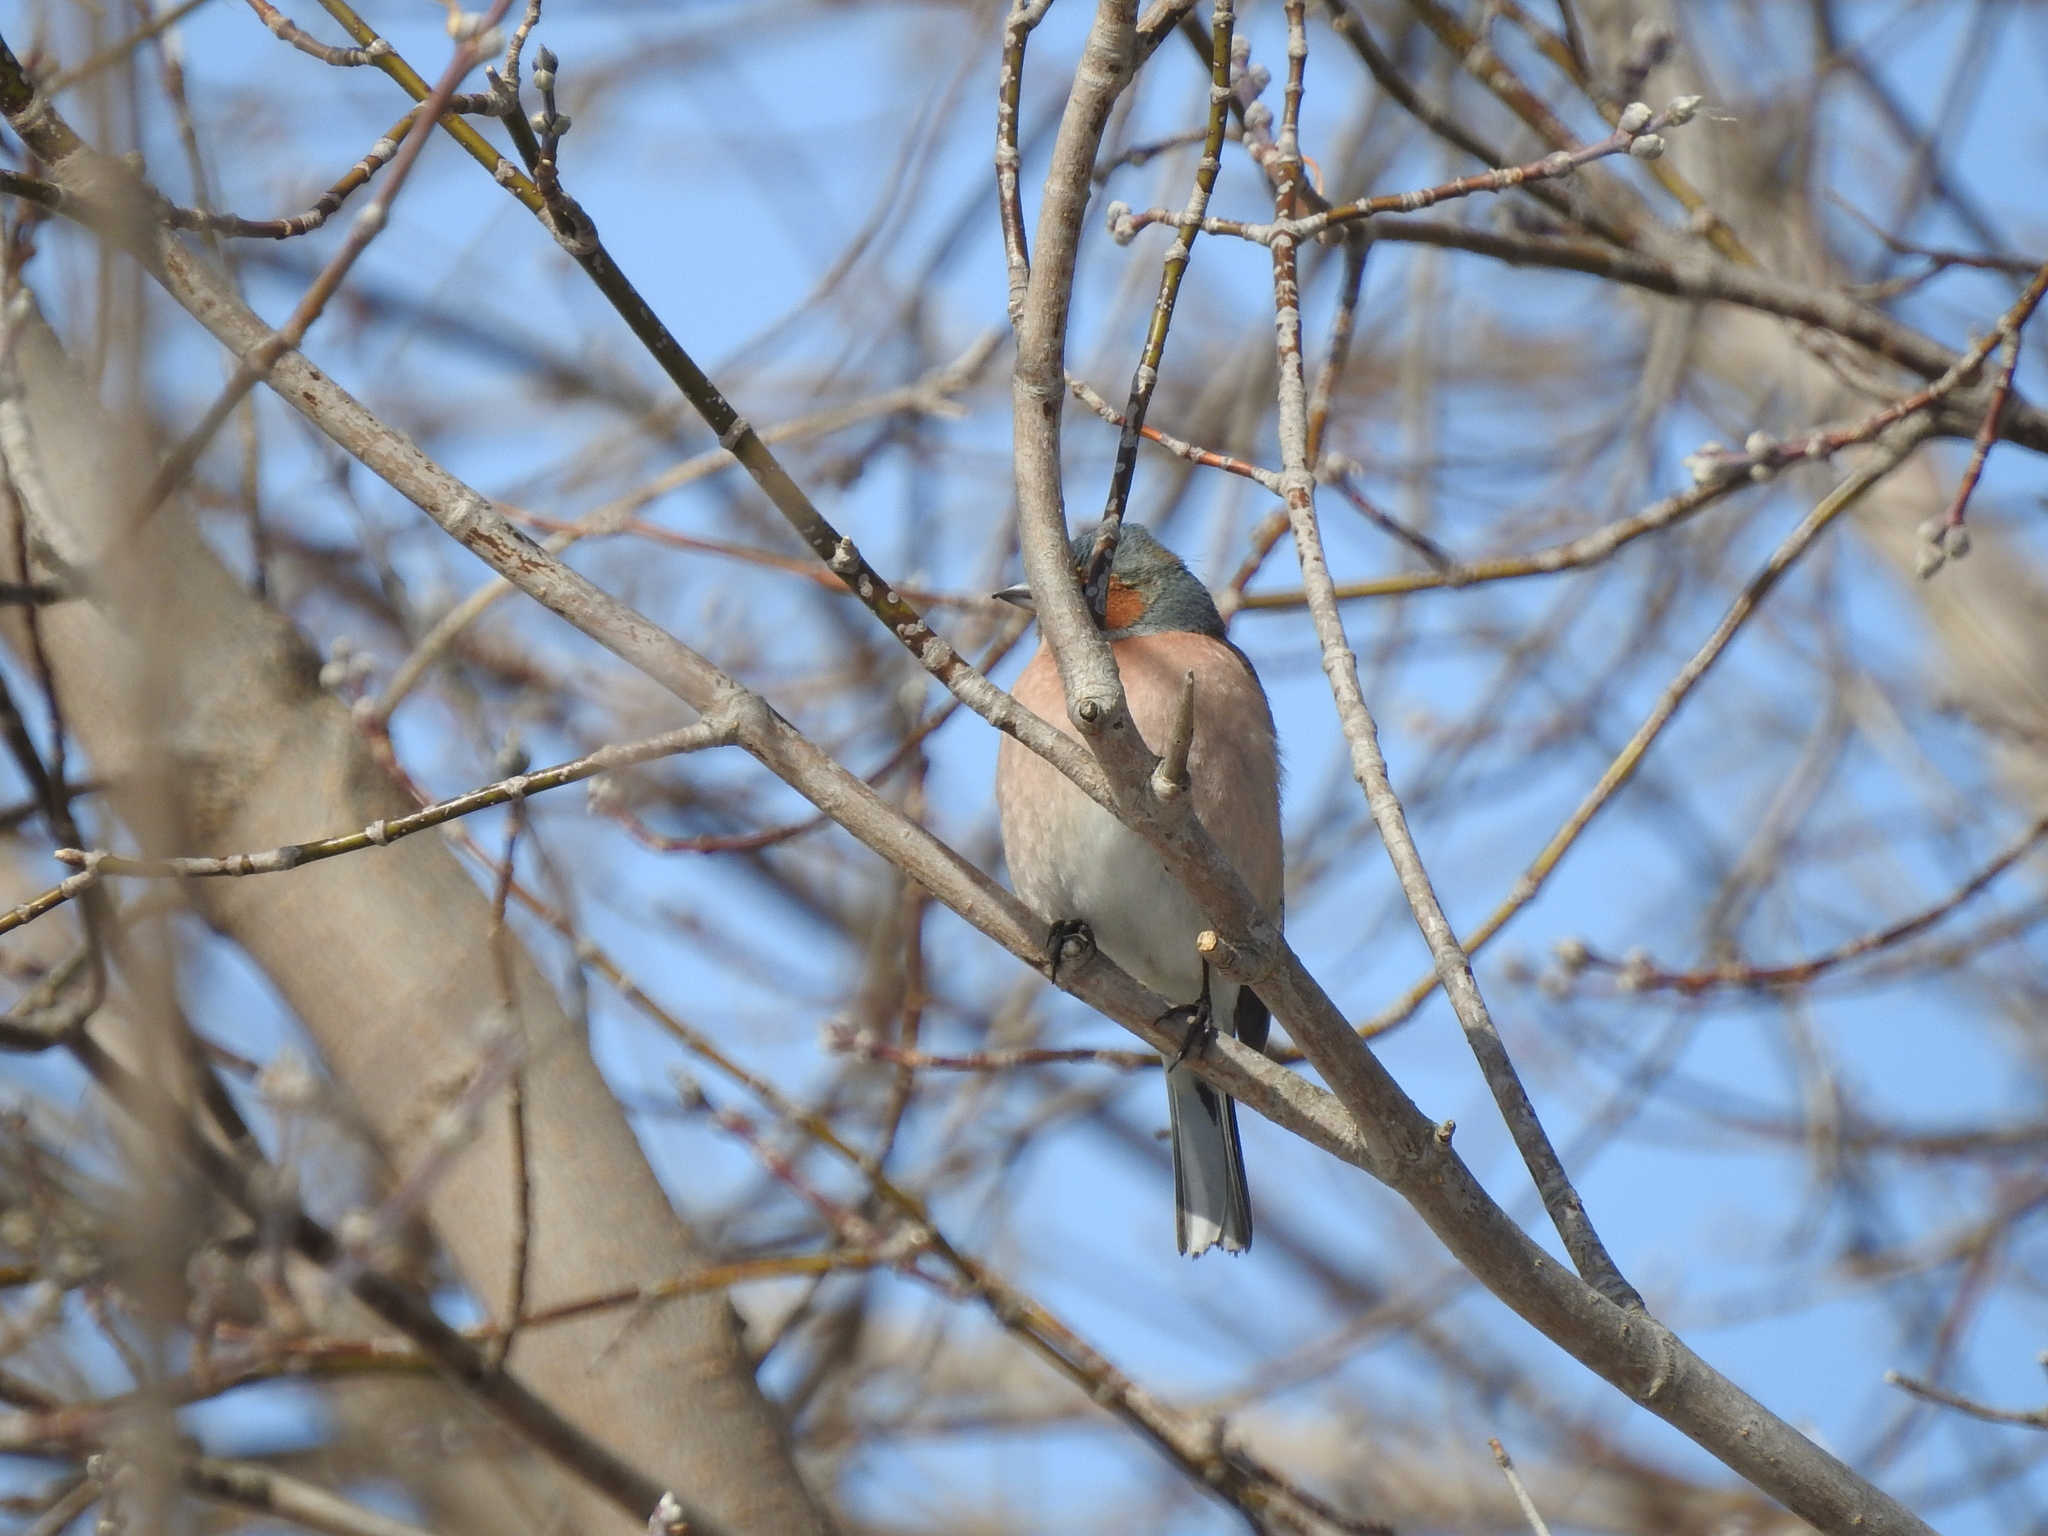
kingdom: Animalia
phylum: Chordata
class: Aves
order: Passeriformes
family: Fringillidae
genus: Fringilla
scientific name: Fringilla coelebs
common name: Common chaffinch
